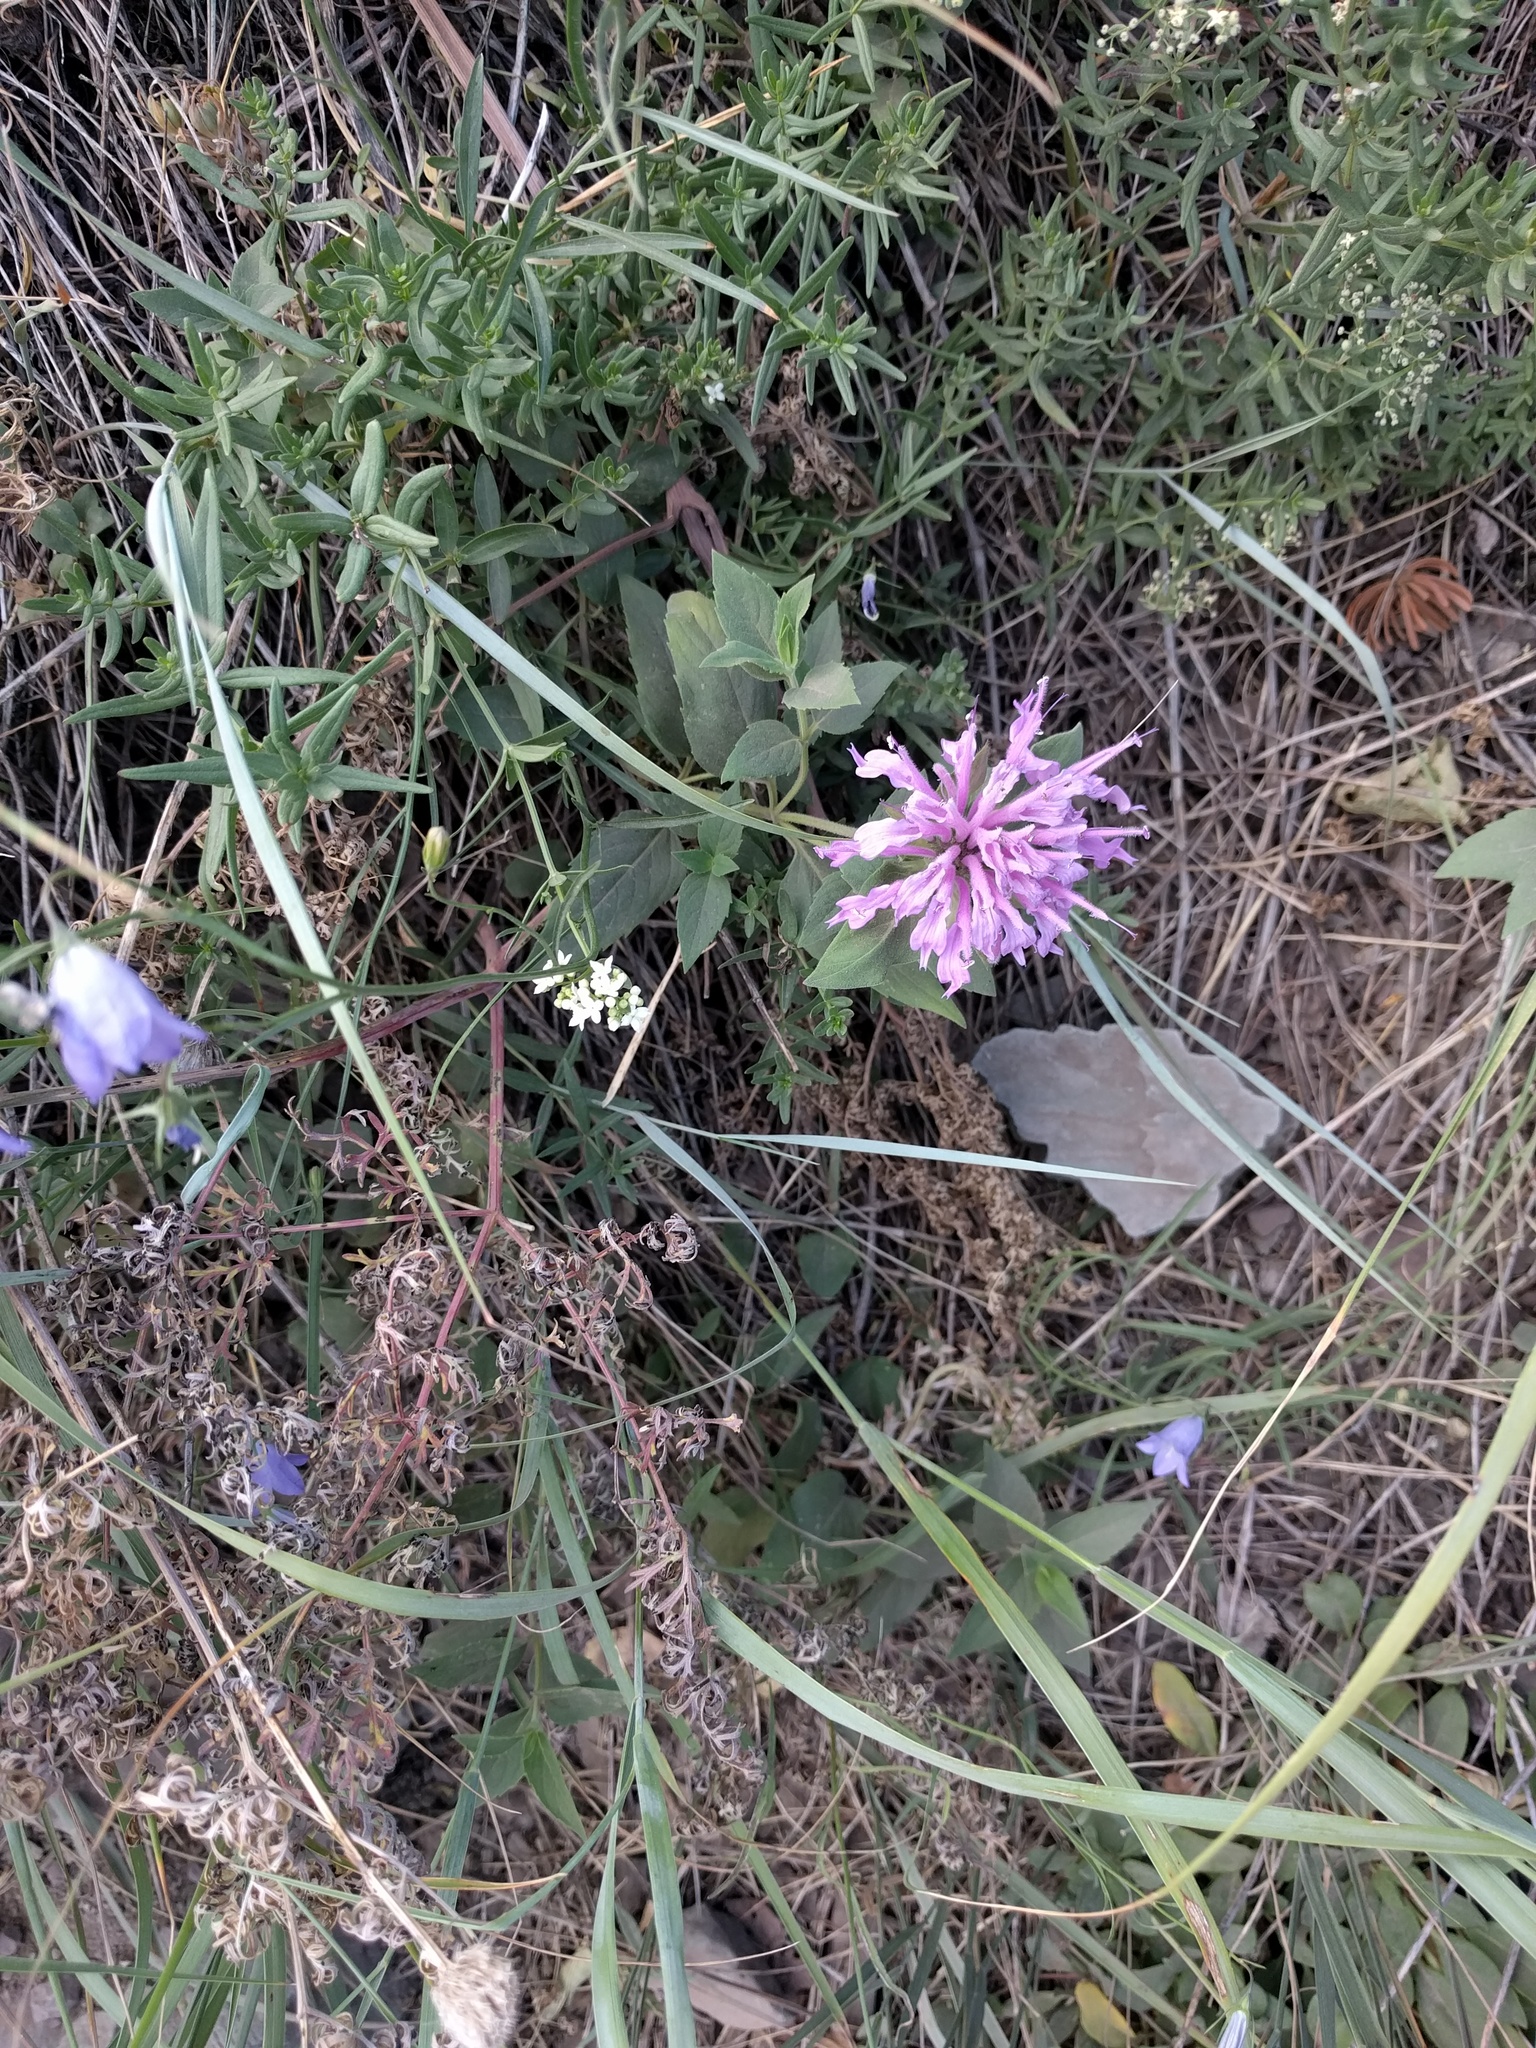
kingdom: Plantae
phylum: Tracheophyta
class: Magnoliopsida
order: Lamiales
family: Lamiaceae
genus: Monarda
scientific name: Monarda fistulosa
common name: Purple beebalm
